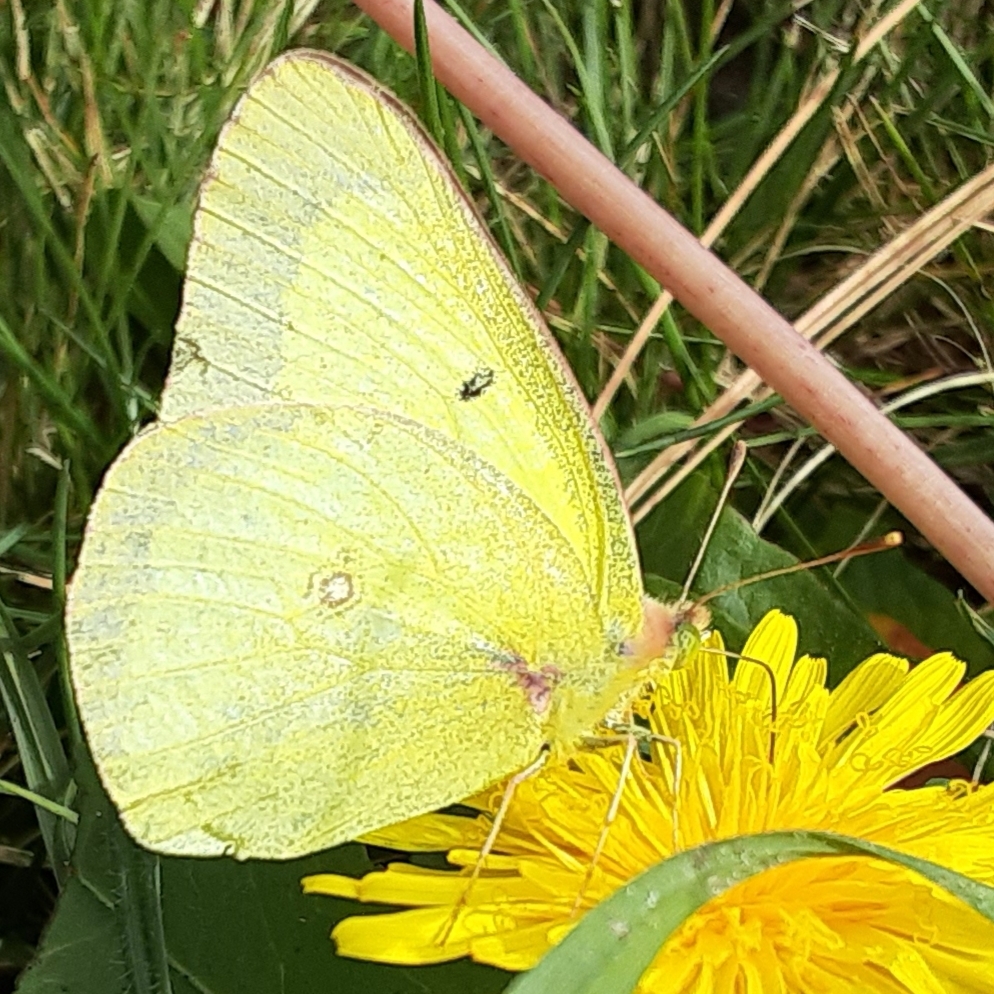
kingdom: Animalia
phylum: Arthropoda
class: Insecta
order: Lepidoptera
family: Pieridae
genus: Colias
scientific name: Colias philodice
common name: Clouded sulphur
